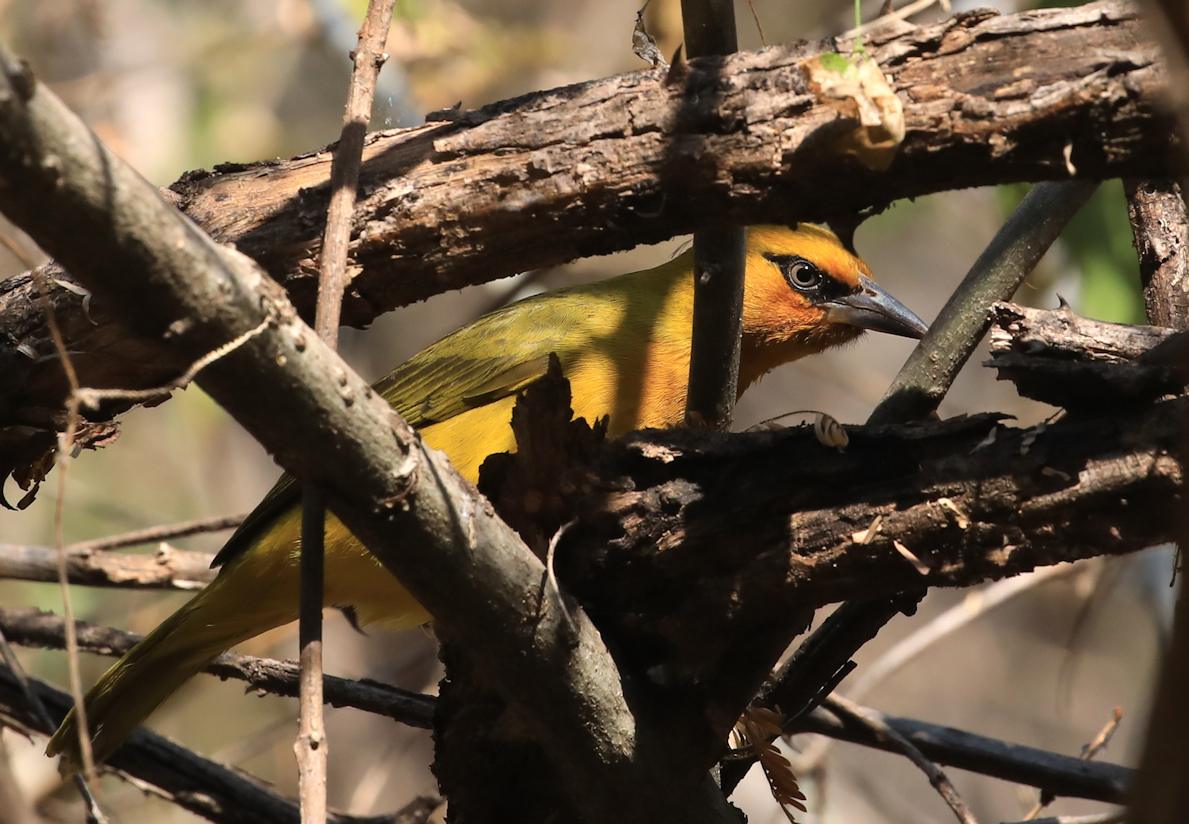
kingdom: Animalia
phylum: Chordata
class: Aves
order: Passeriformes
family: Ploceidae
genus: Ploceus
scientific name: Ploceus ocularis
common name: Spectacled weaver
